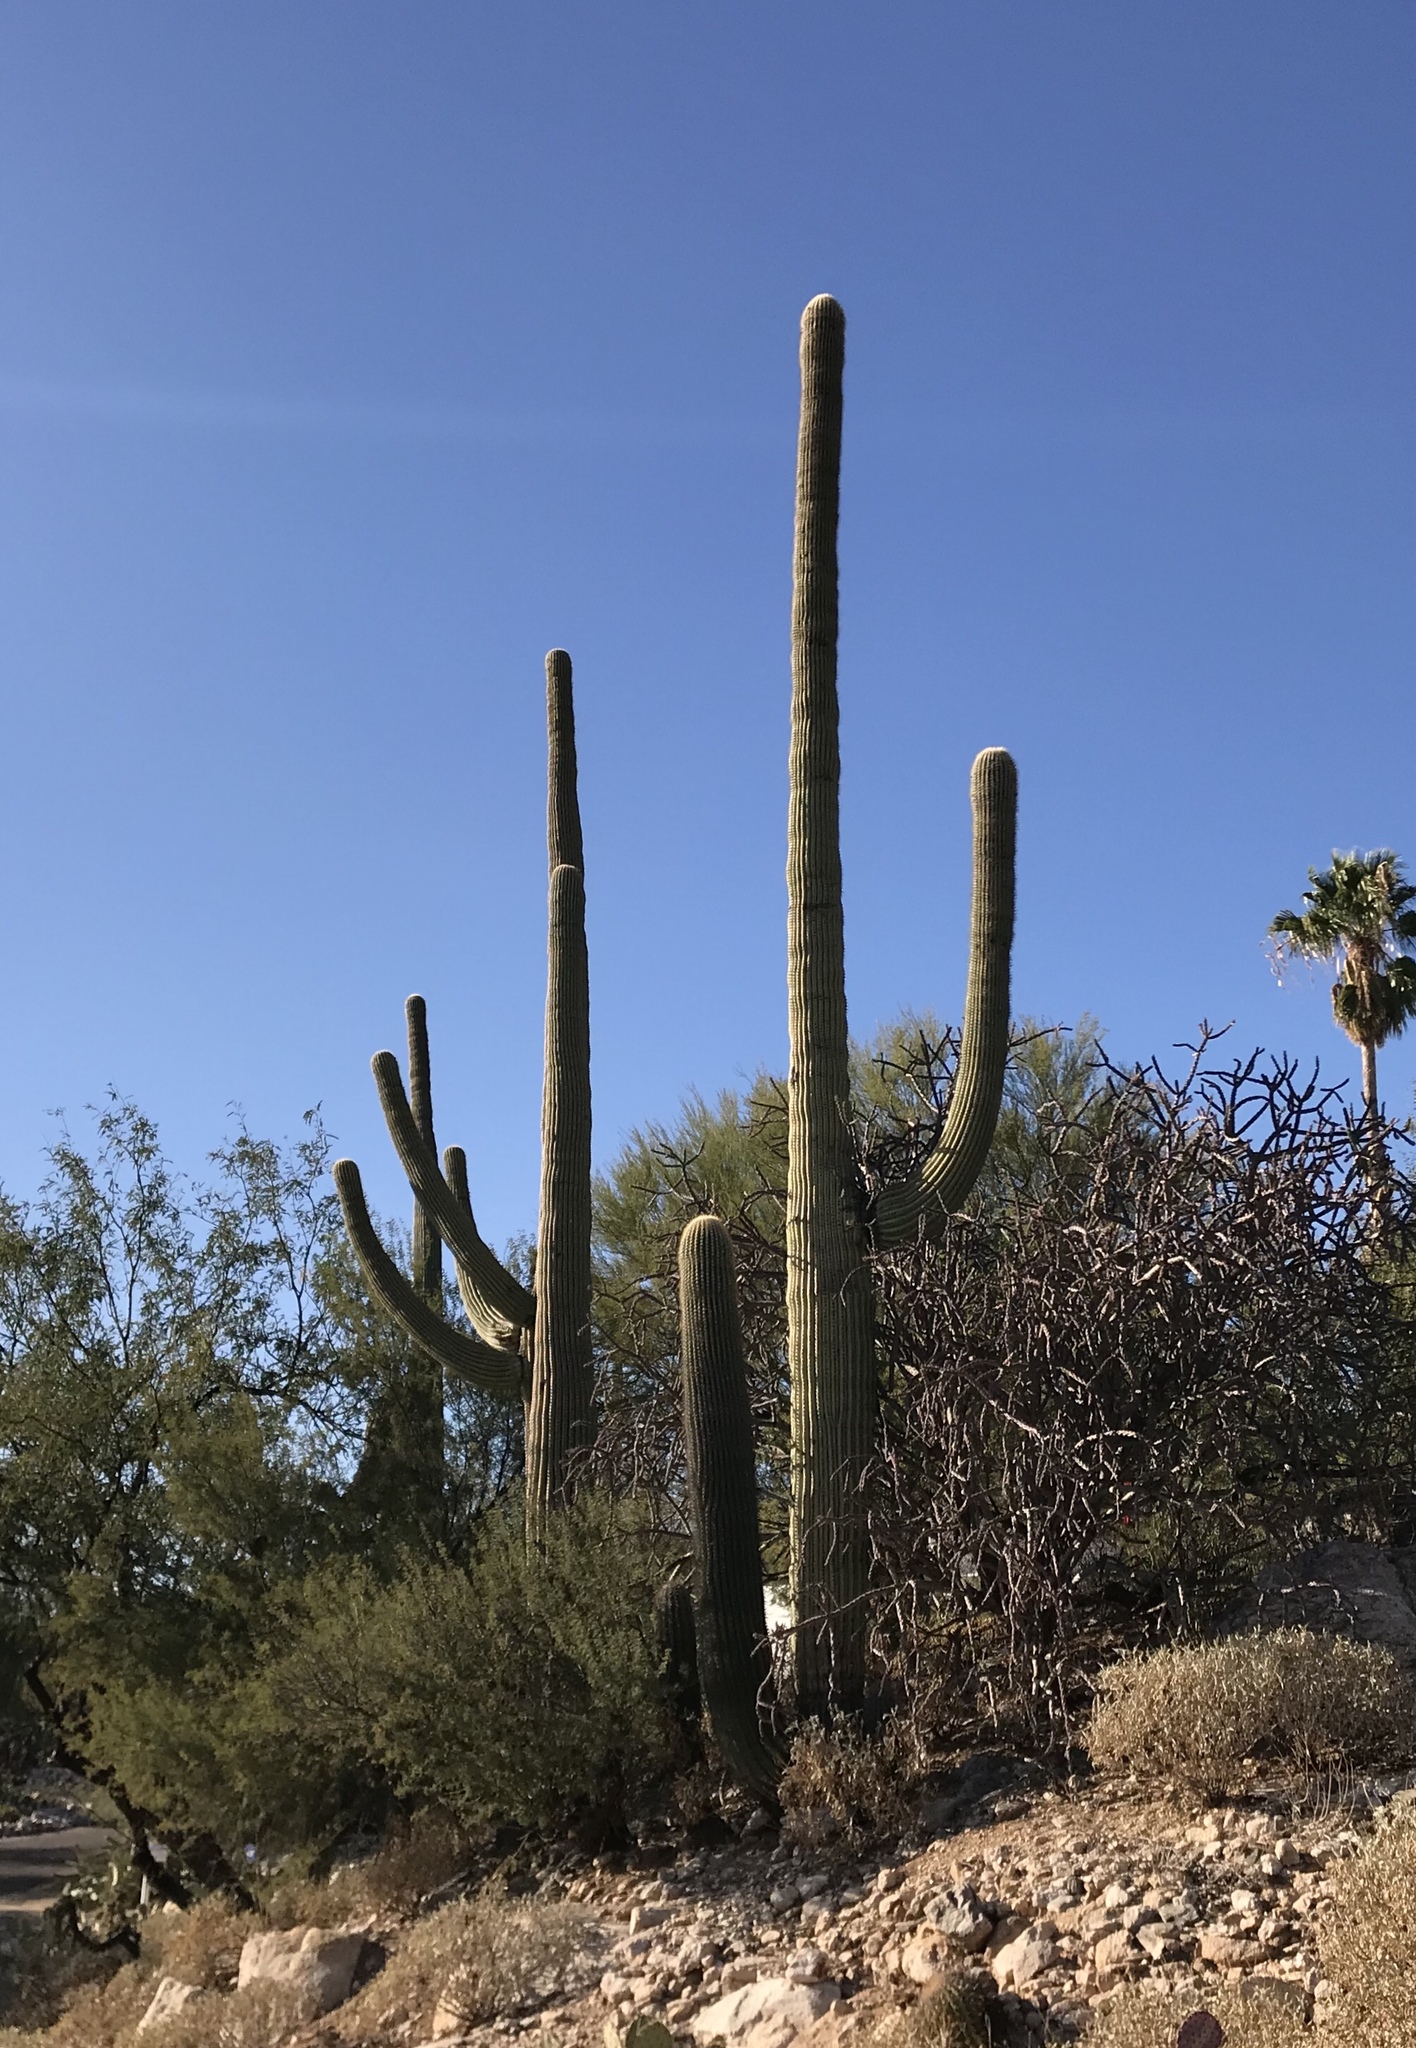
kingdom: Plantae
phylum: Tracheophyta
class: Magnoliopsida
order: Caryophyllales
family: Cactaceae
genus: Carnegiea
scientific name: Carnegiea gigantea
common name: Saguaro
